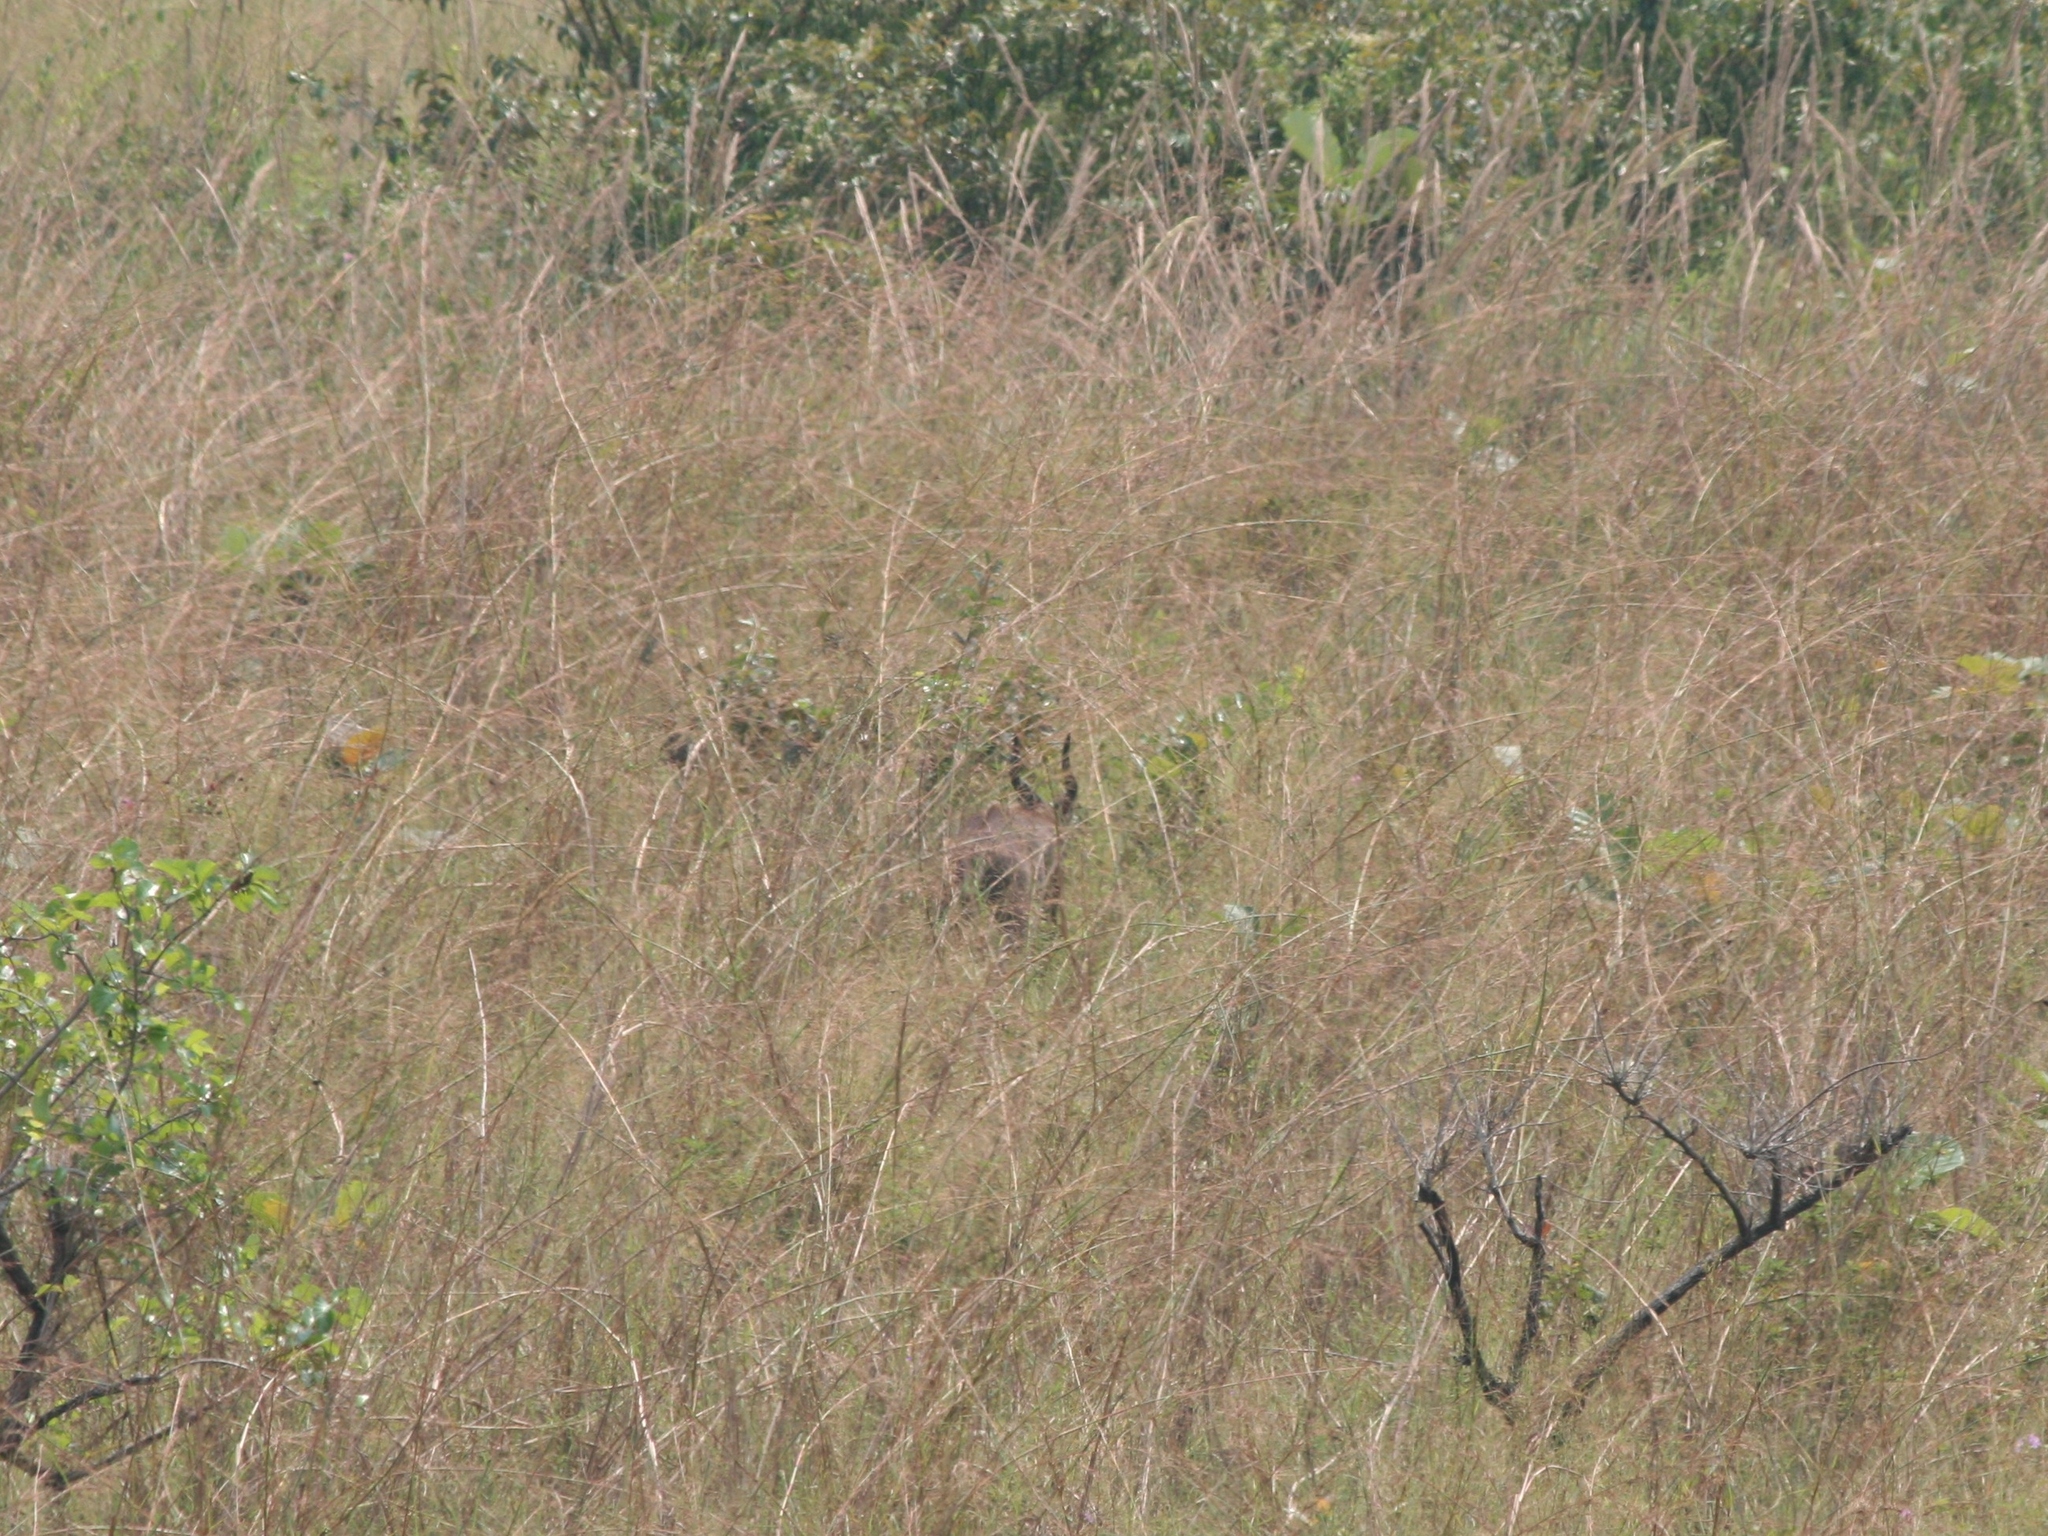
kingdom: Animalia
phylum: Chordata
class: Mammalia
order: Artiodactyla
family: Bovidae
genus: Tragelaphus
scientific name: Tragelaphus spekii
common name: Sitatunga
